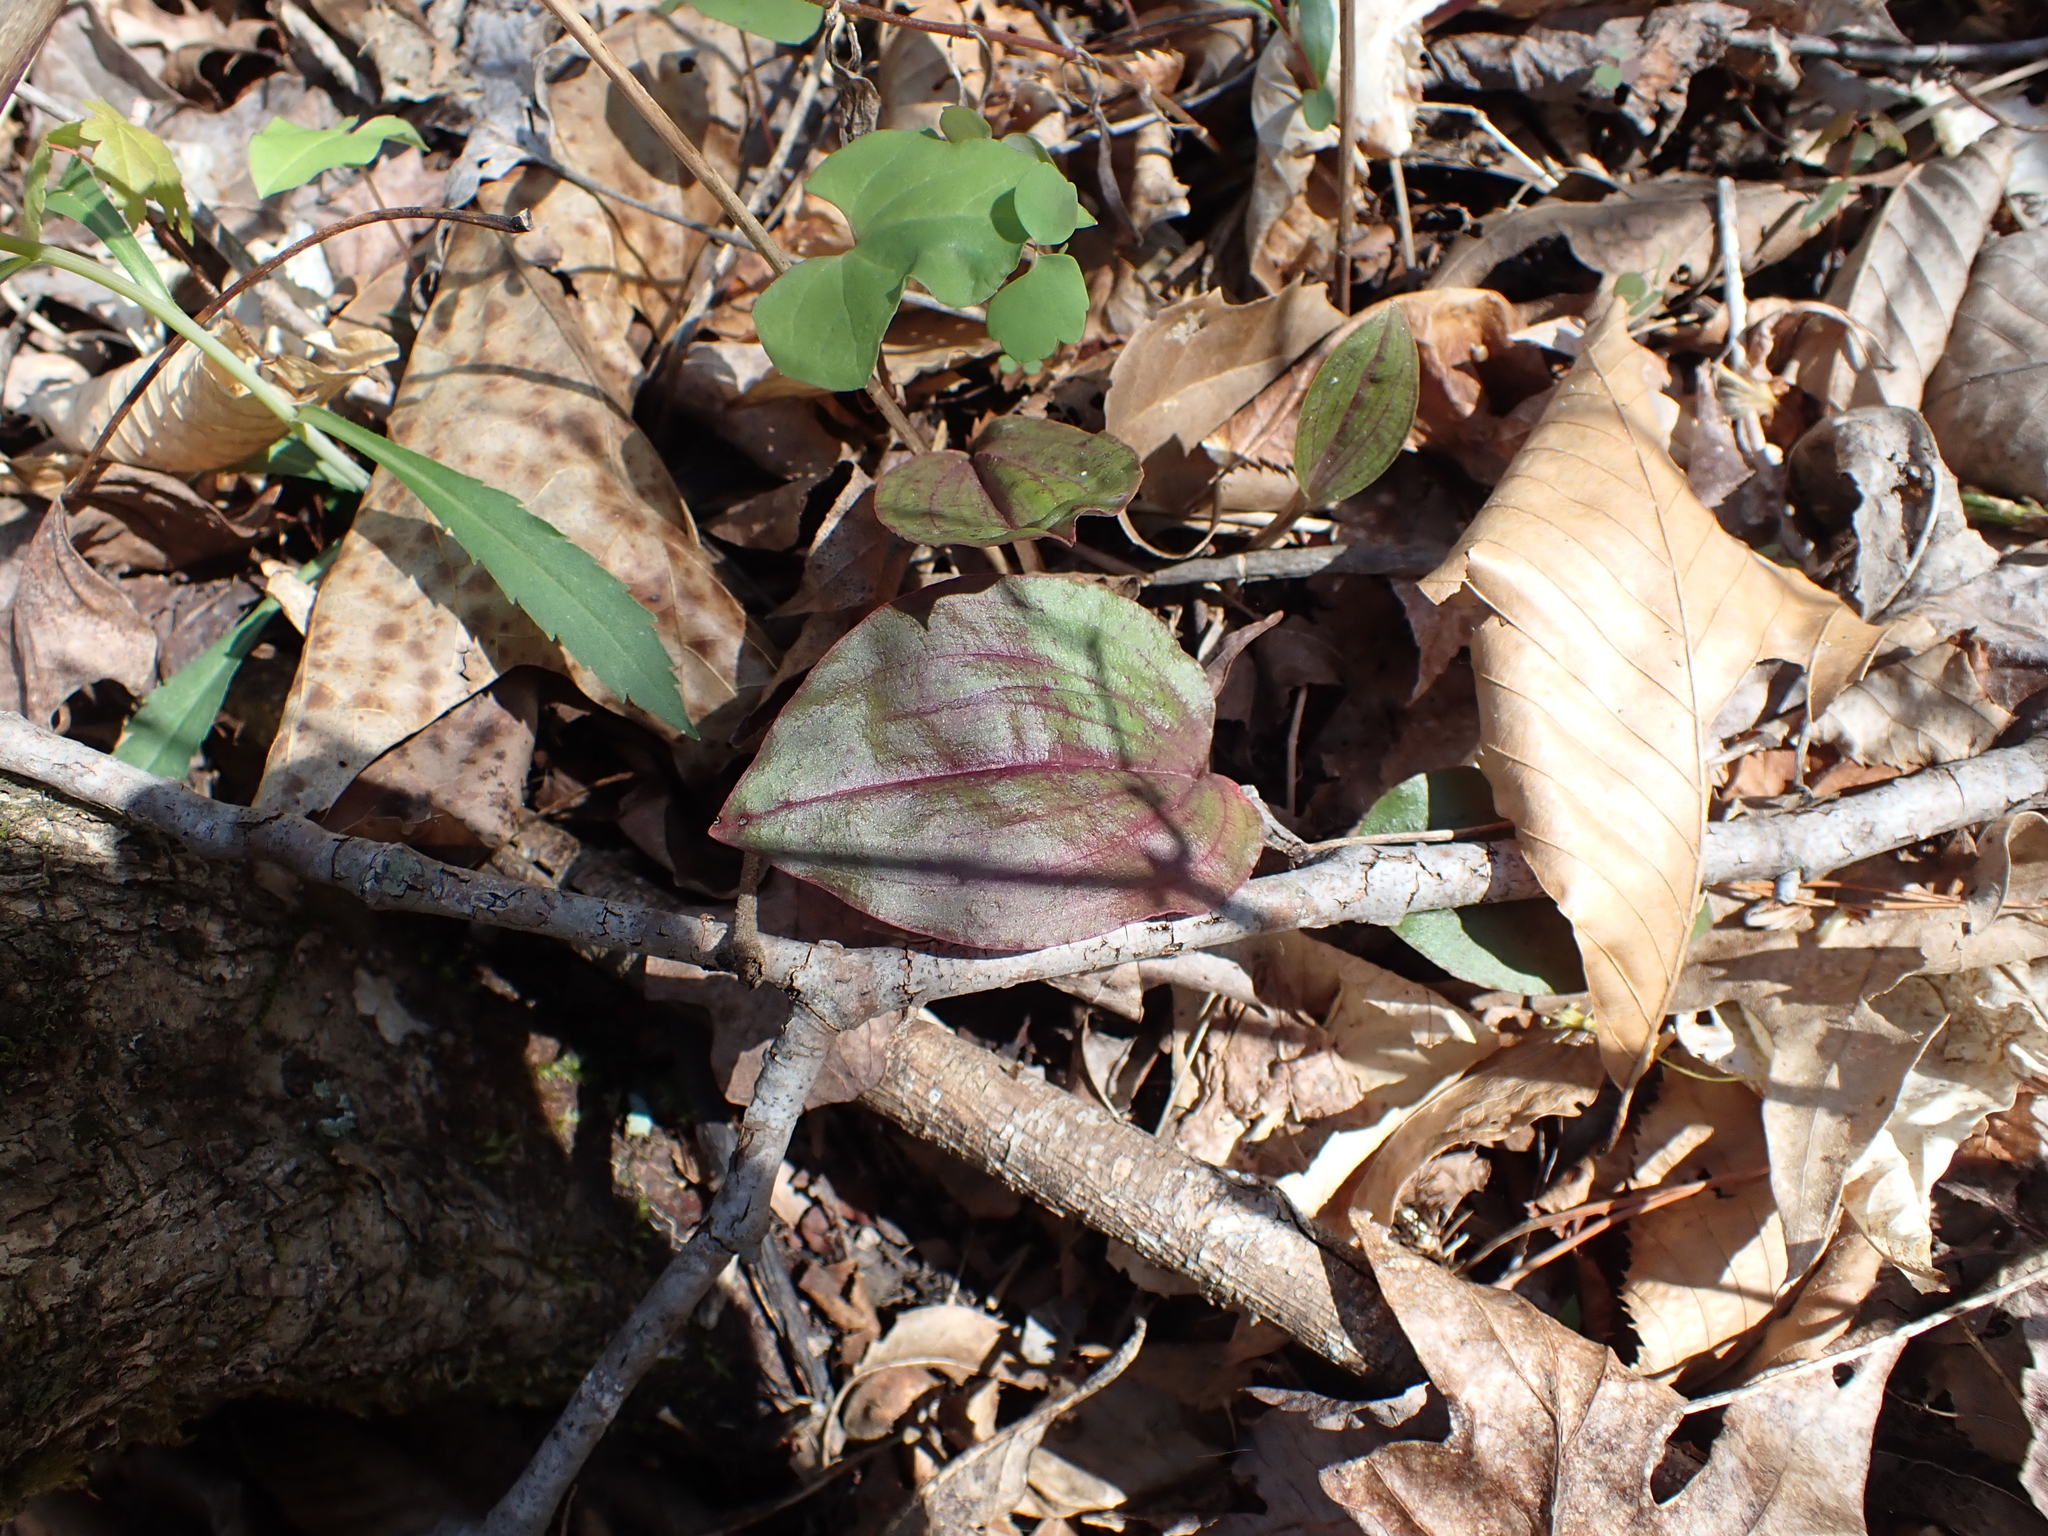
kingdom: Plantae
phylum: Tracheophyta
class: Liliopsida
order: Asparagales
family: Orchidaceae
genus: Tipularia
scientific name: Tipularia discolor
